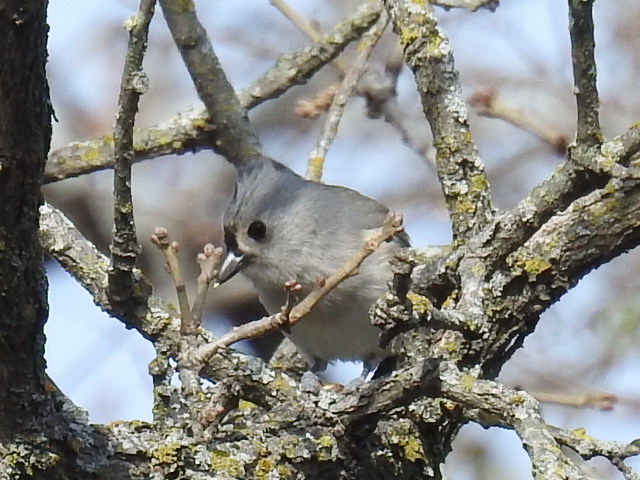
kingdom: Animalia
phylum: Chordata
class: Aves
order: Passeriformes
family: Paridae
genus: Baeolophus
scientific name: Baeolophus bicolor
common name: Tufted titmouse
